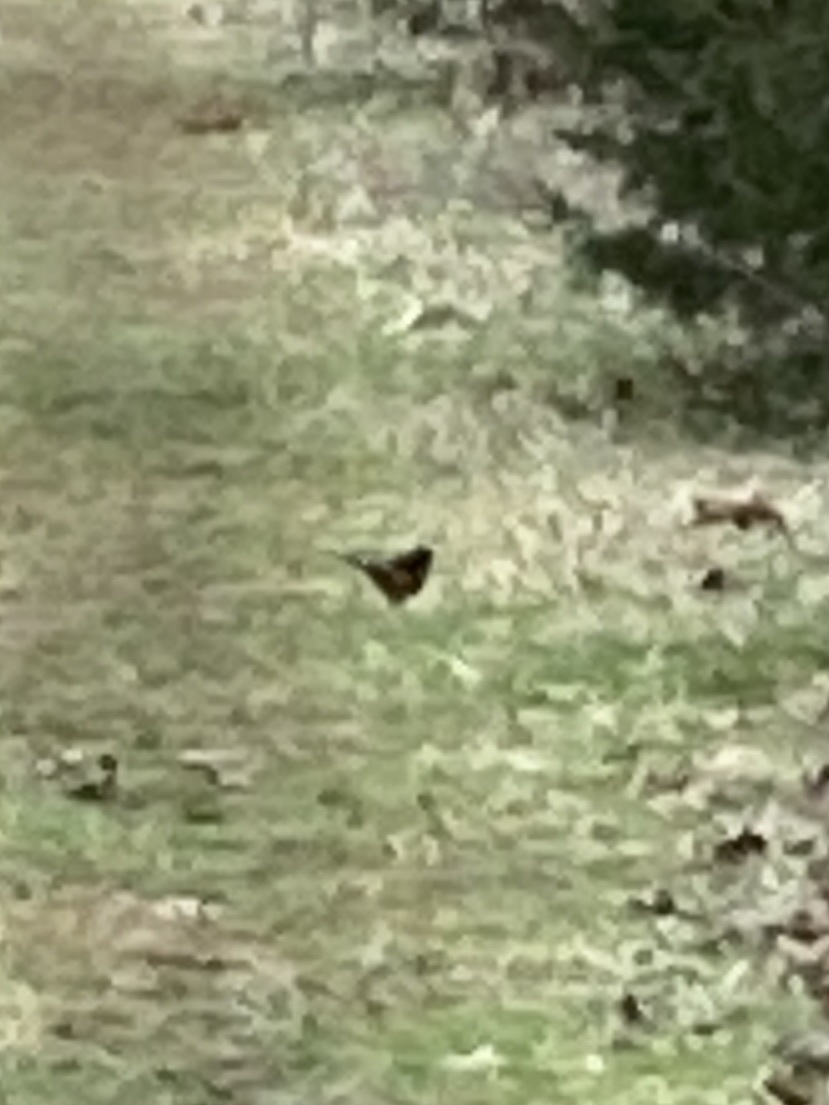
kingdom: Animalia
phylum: Chordata
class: Aves
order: Passeriformes
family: Passerellidae
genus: Pipilo
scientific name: Pipilo erythrophthalmus
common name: Eastern towhee
